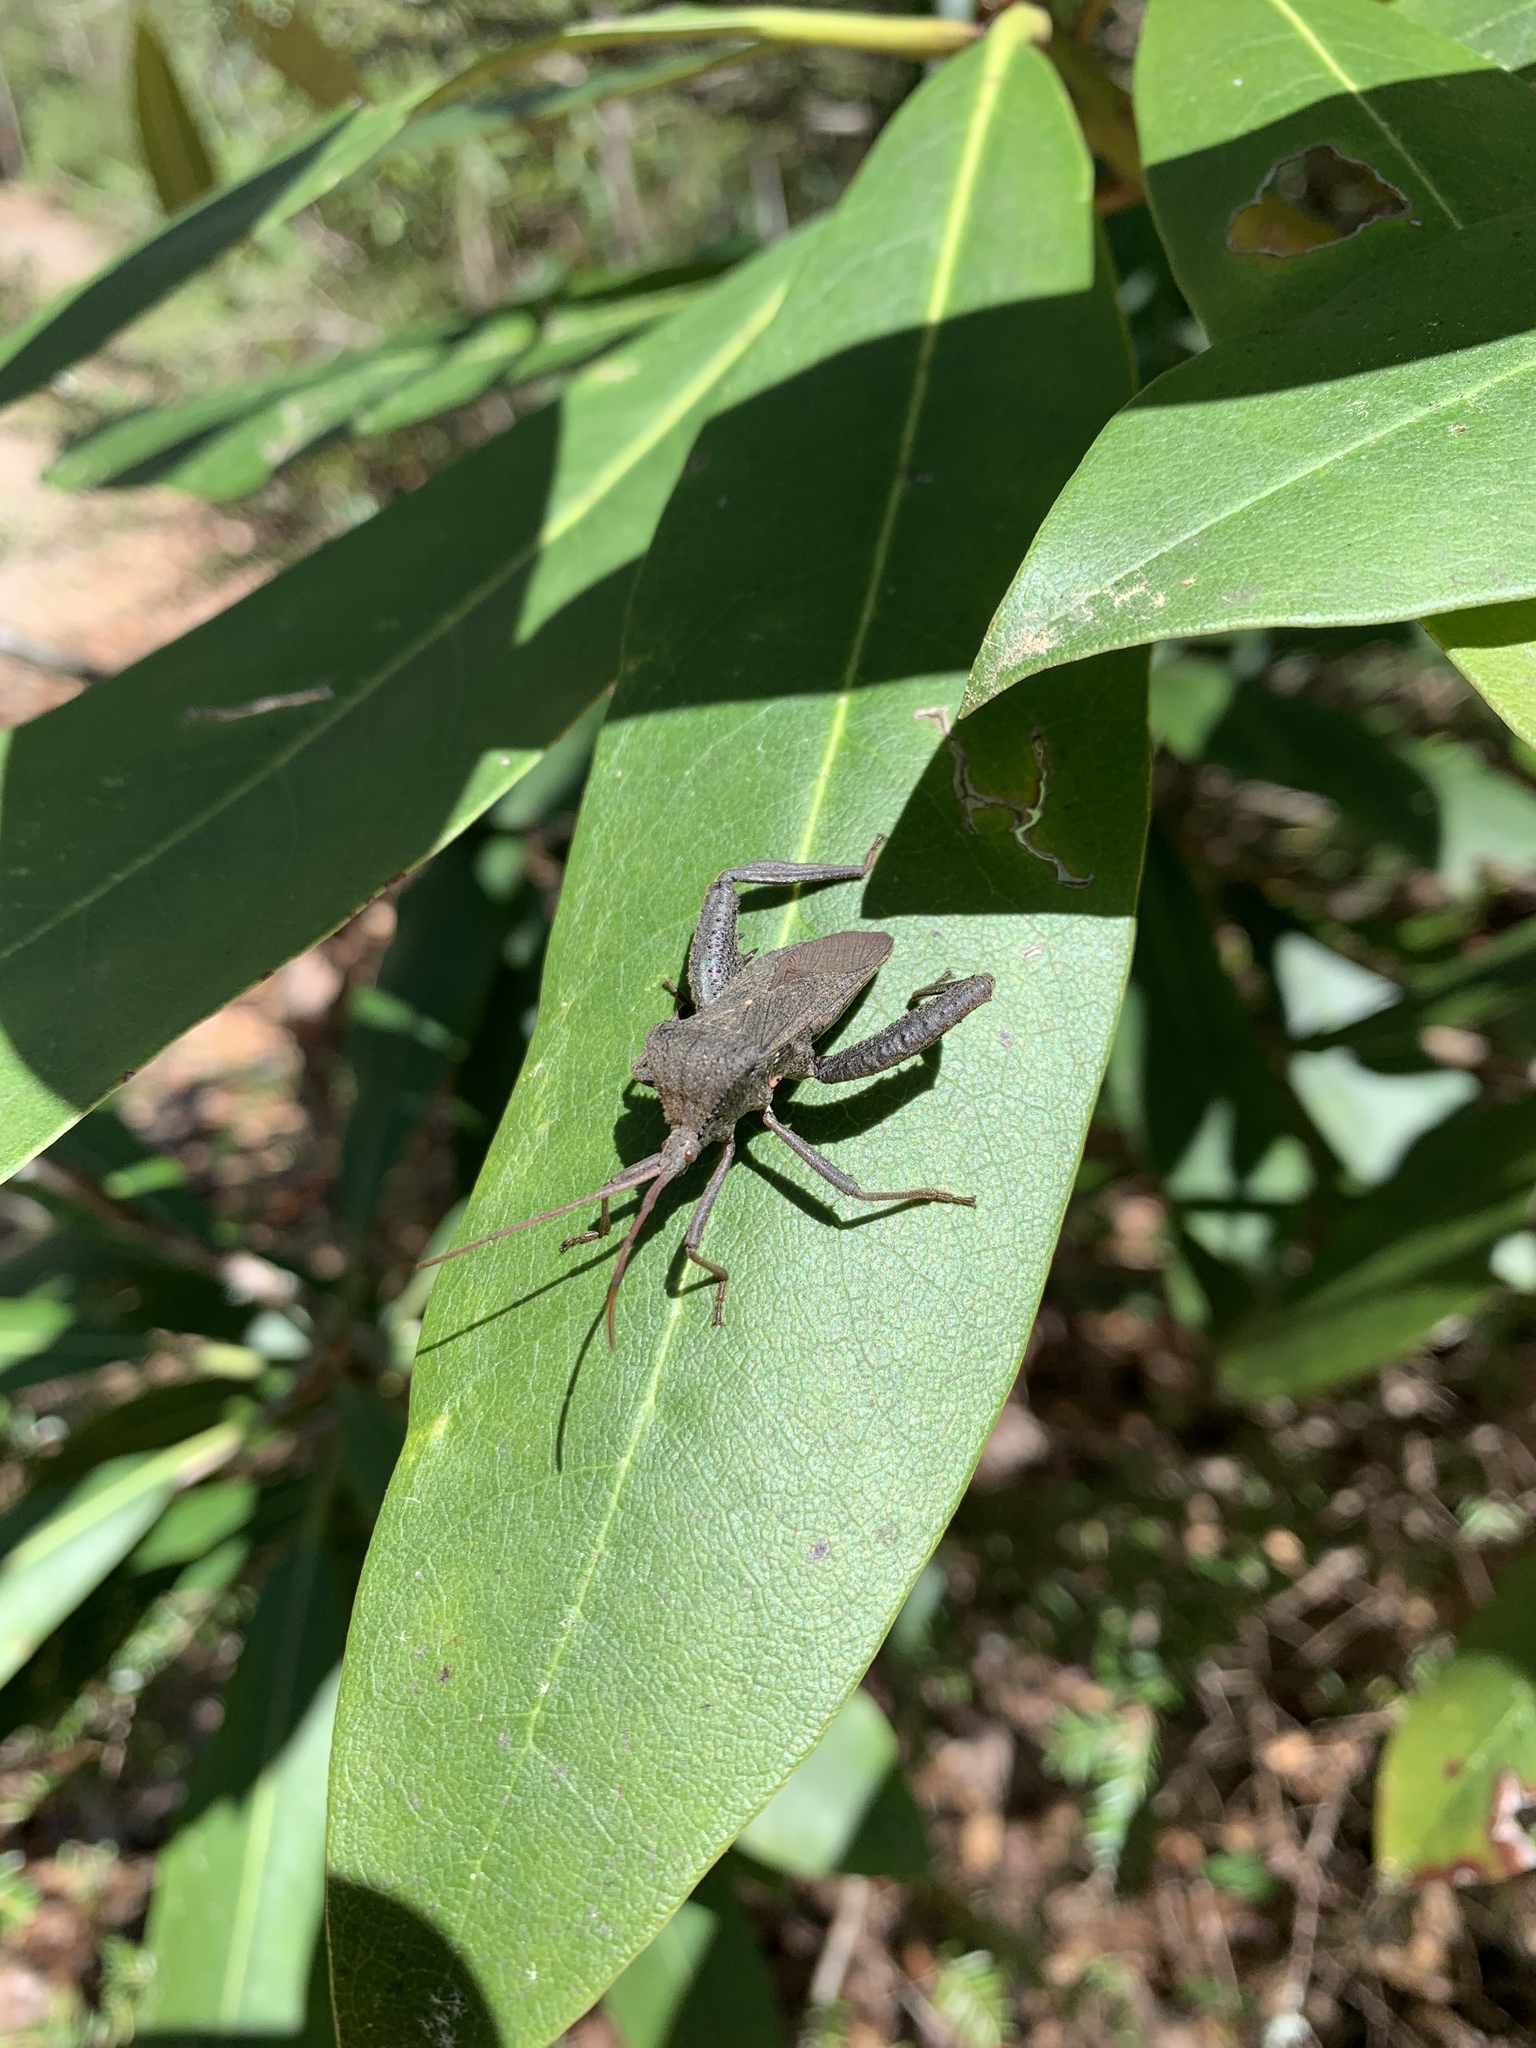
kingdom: Animalia
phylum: Arthropoda
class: Insecta
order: Hemiptera
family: Coreidae
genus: Acanthocephala
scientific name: Acanthocephala femorata
